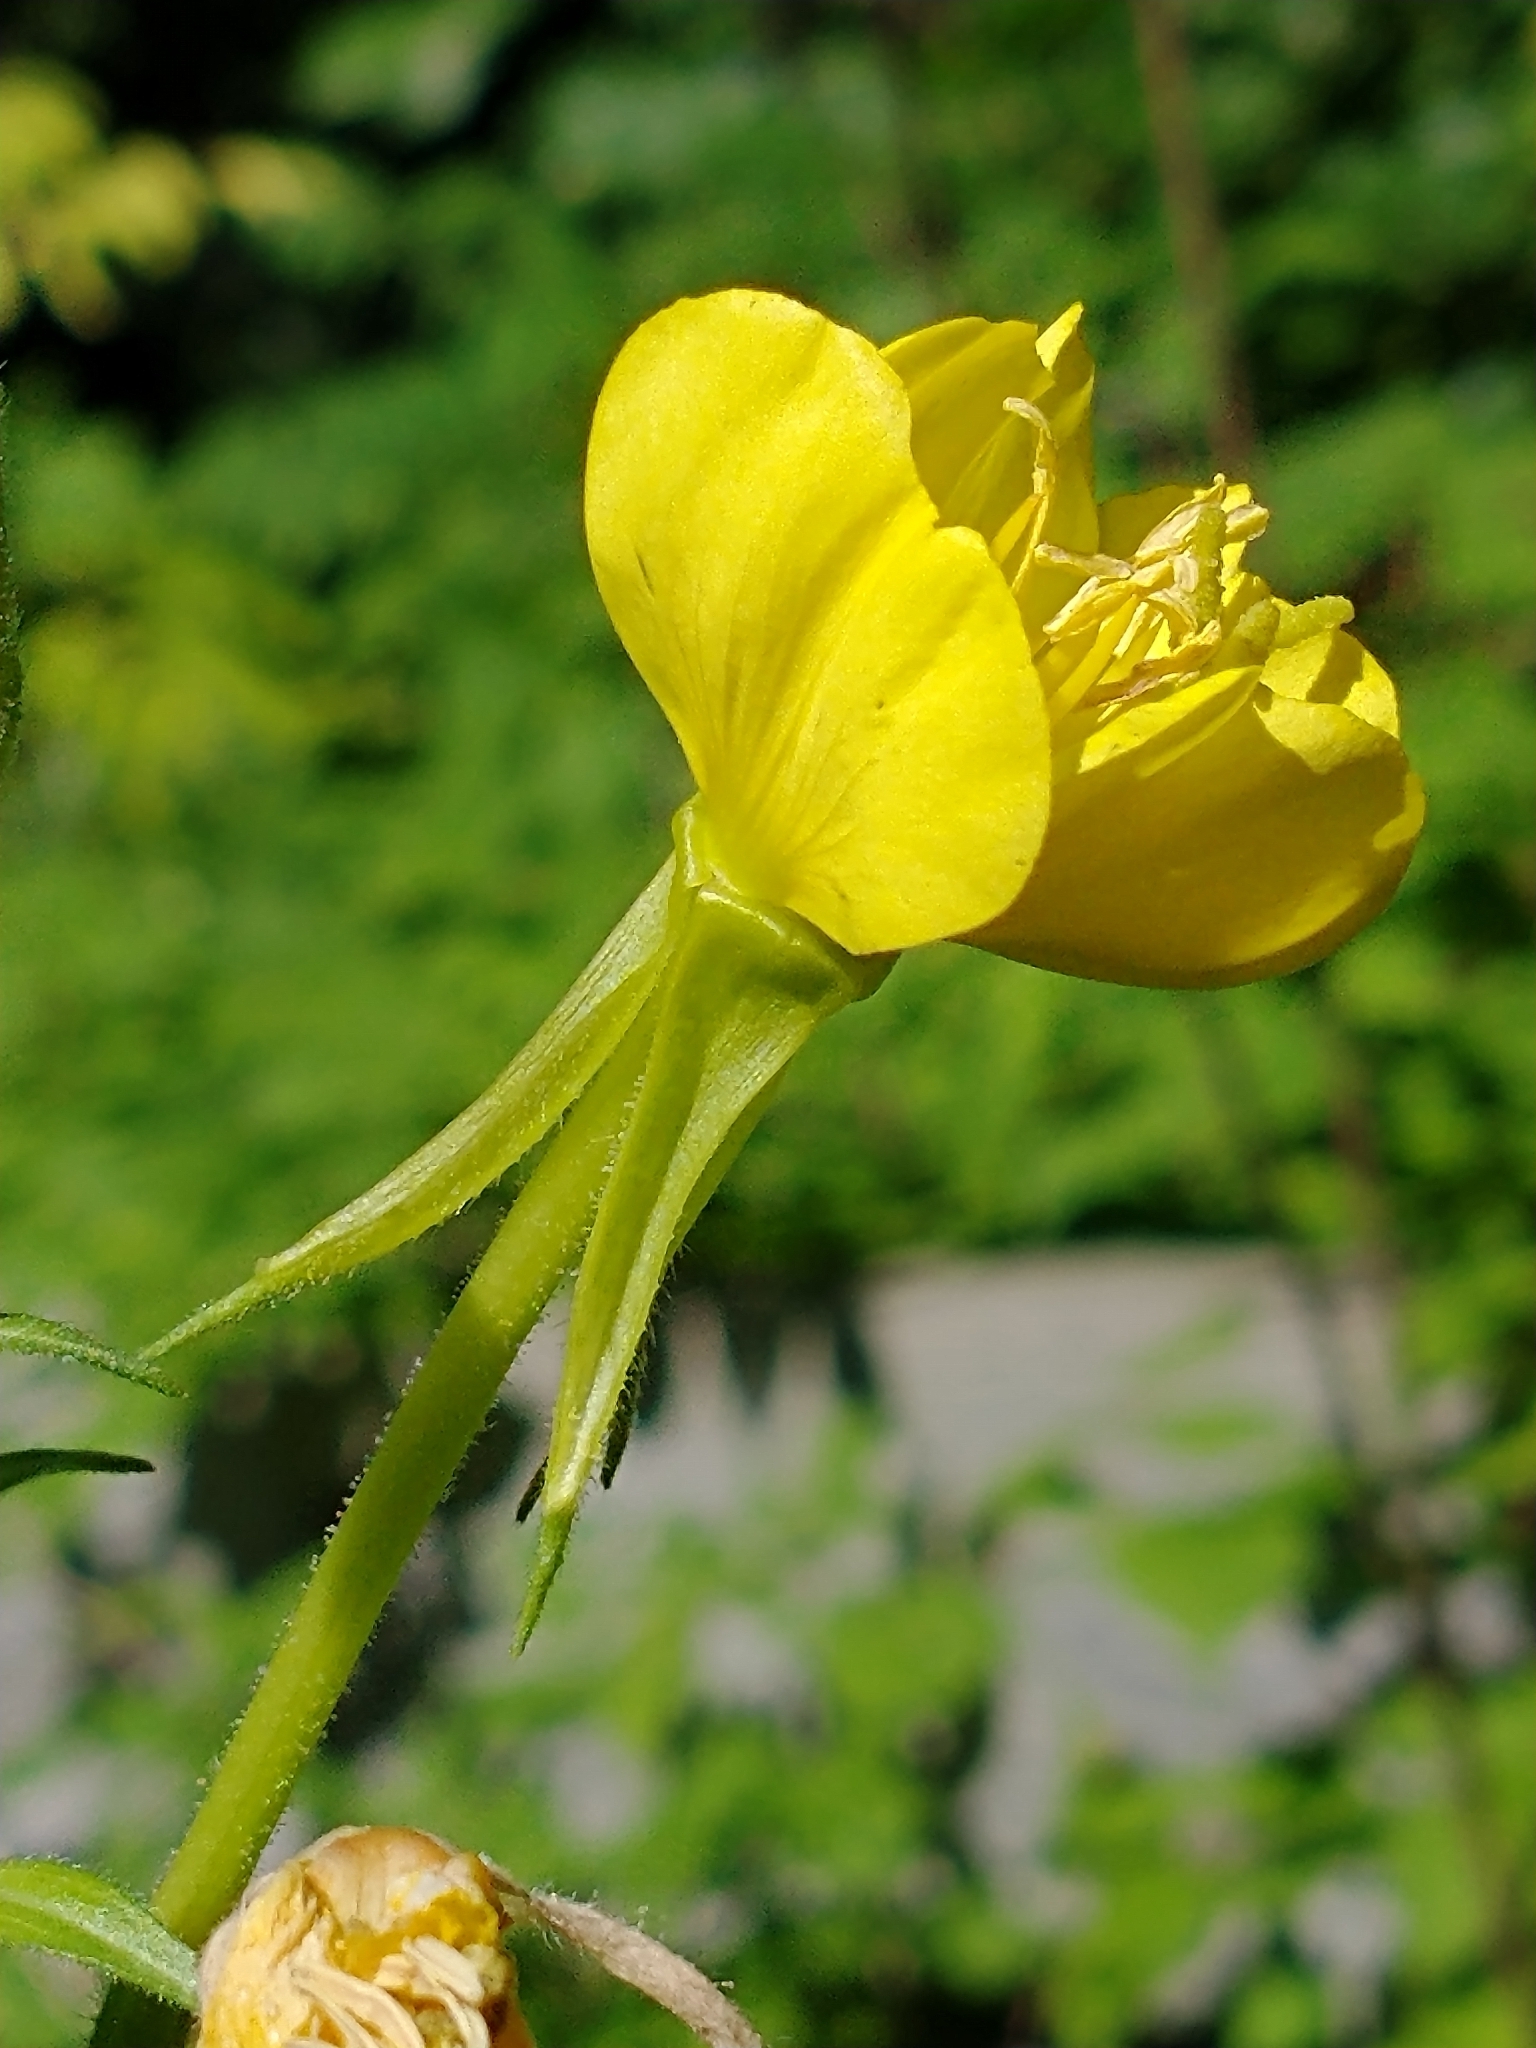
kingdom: Plantae
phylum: Tracheophyta
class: Magnoliopsida
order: Myrtales
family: Onagraceae
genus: Oenothera
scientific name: Oenothera parviflora
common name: Least evening-primrose
